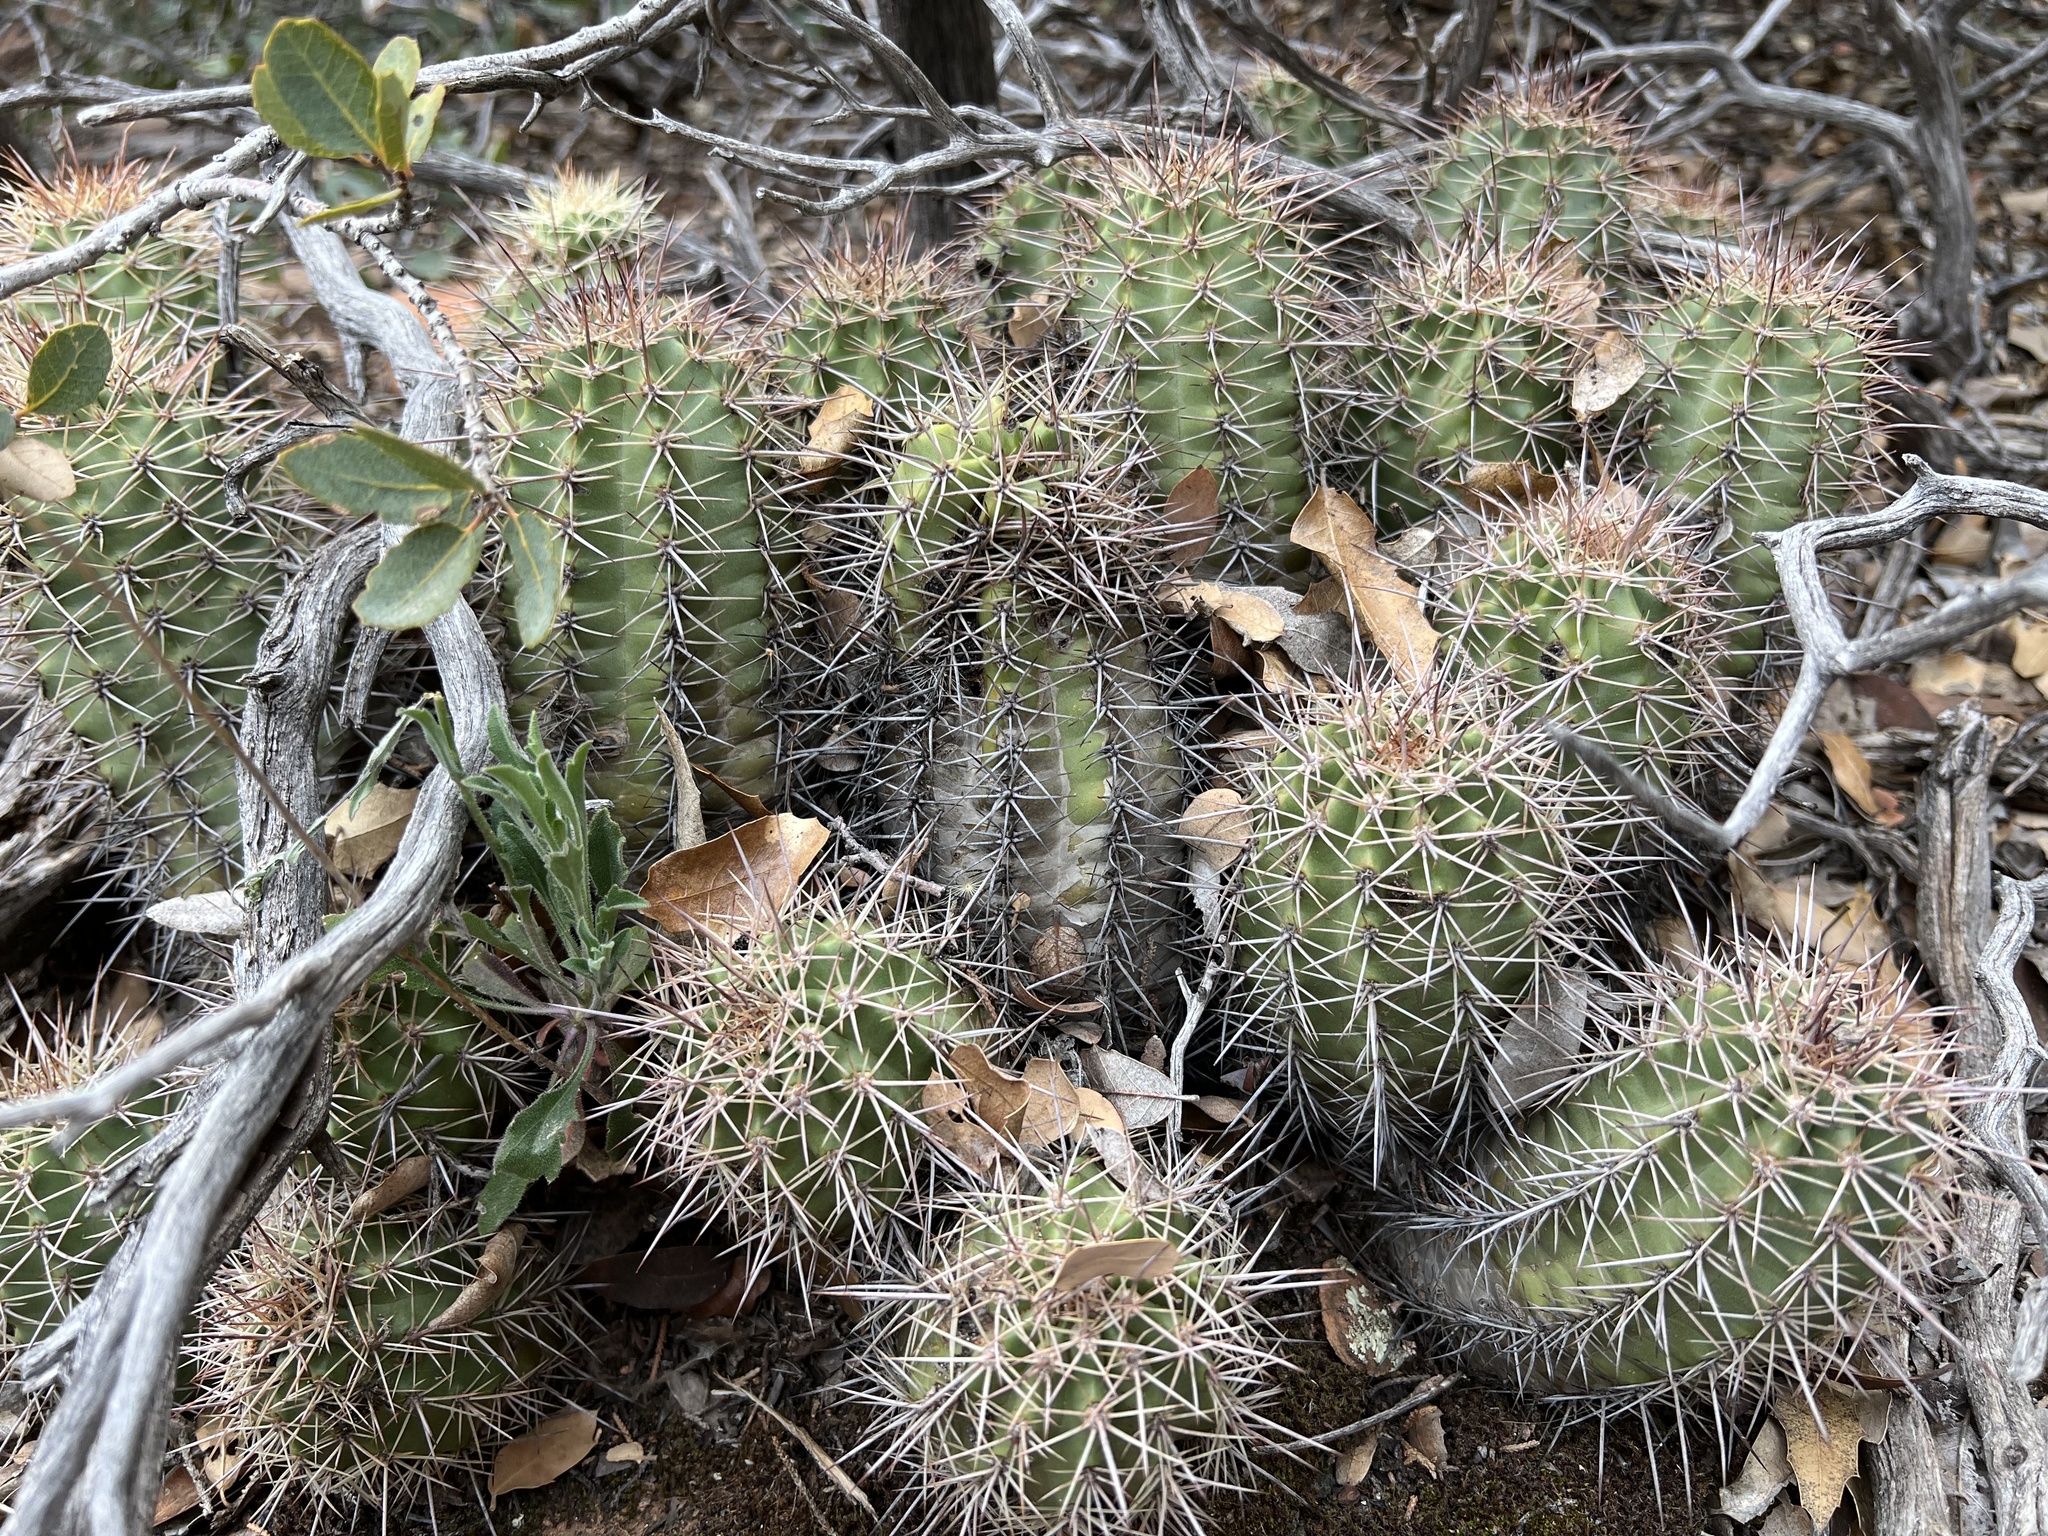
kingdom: Plantae
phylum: Tracheophyta
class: Magnoliopsida
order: Caryophyllales
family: Cactaceae
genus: Echinocereus
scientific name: Echinocereus bakeri
